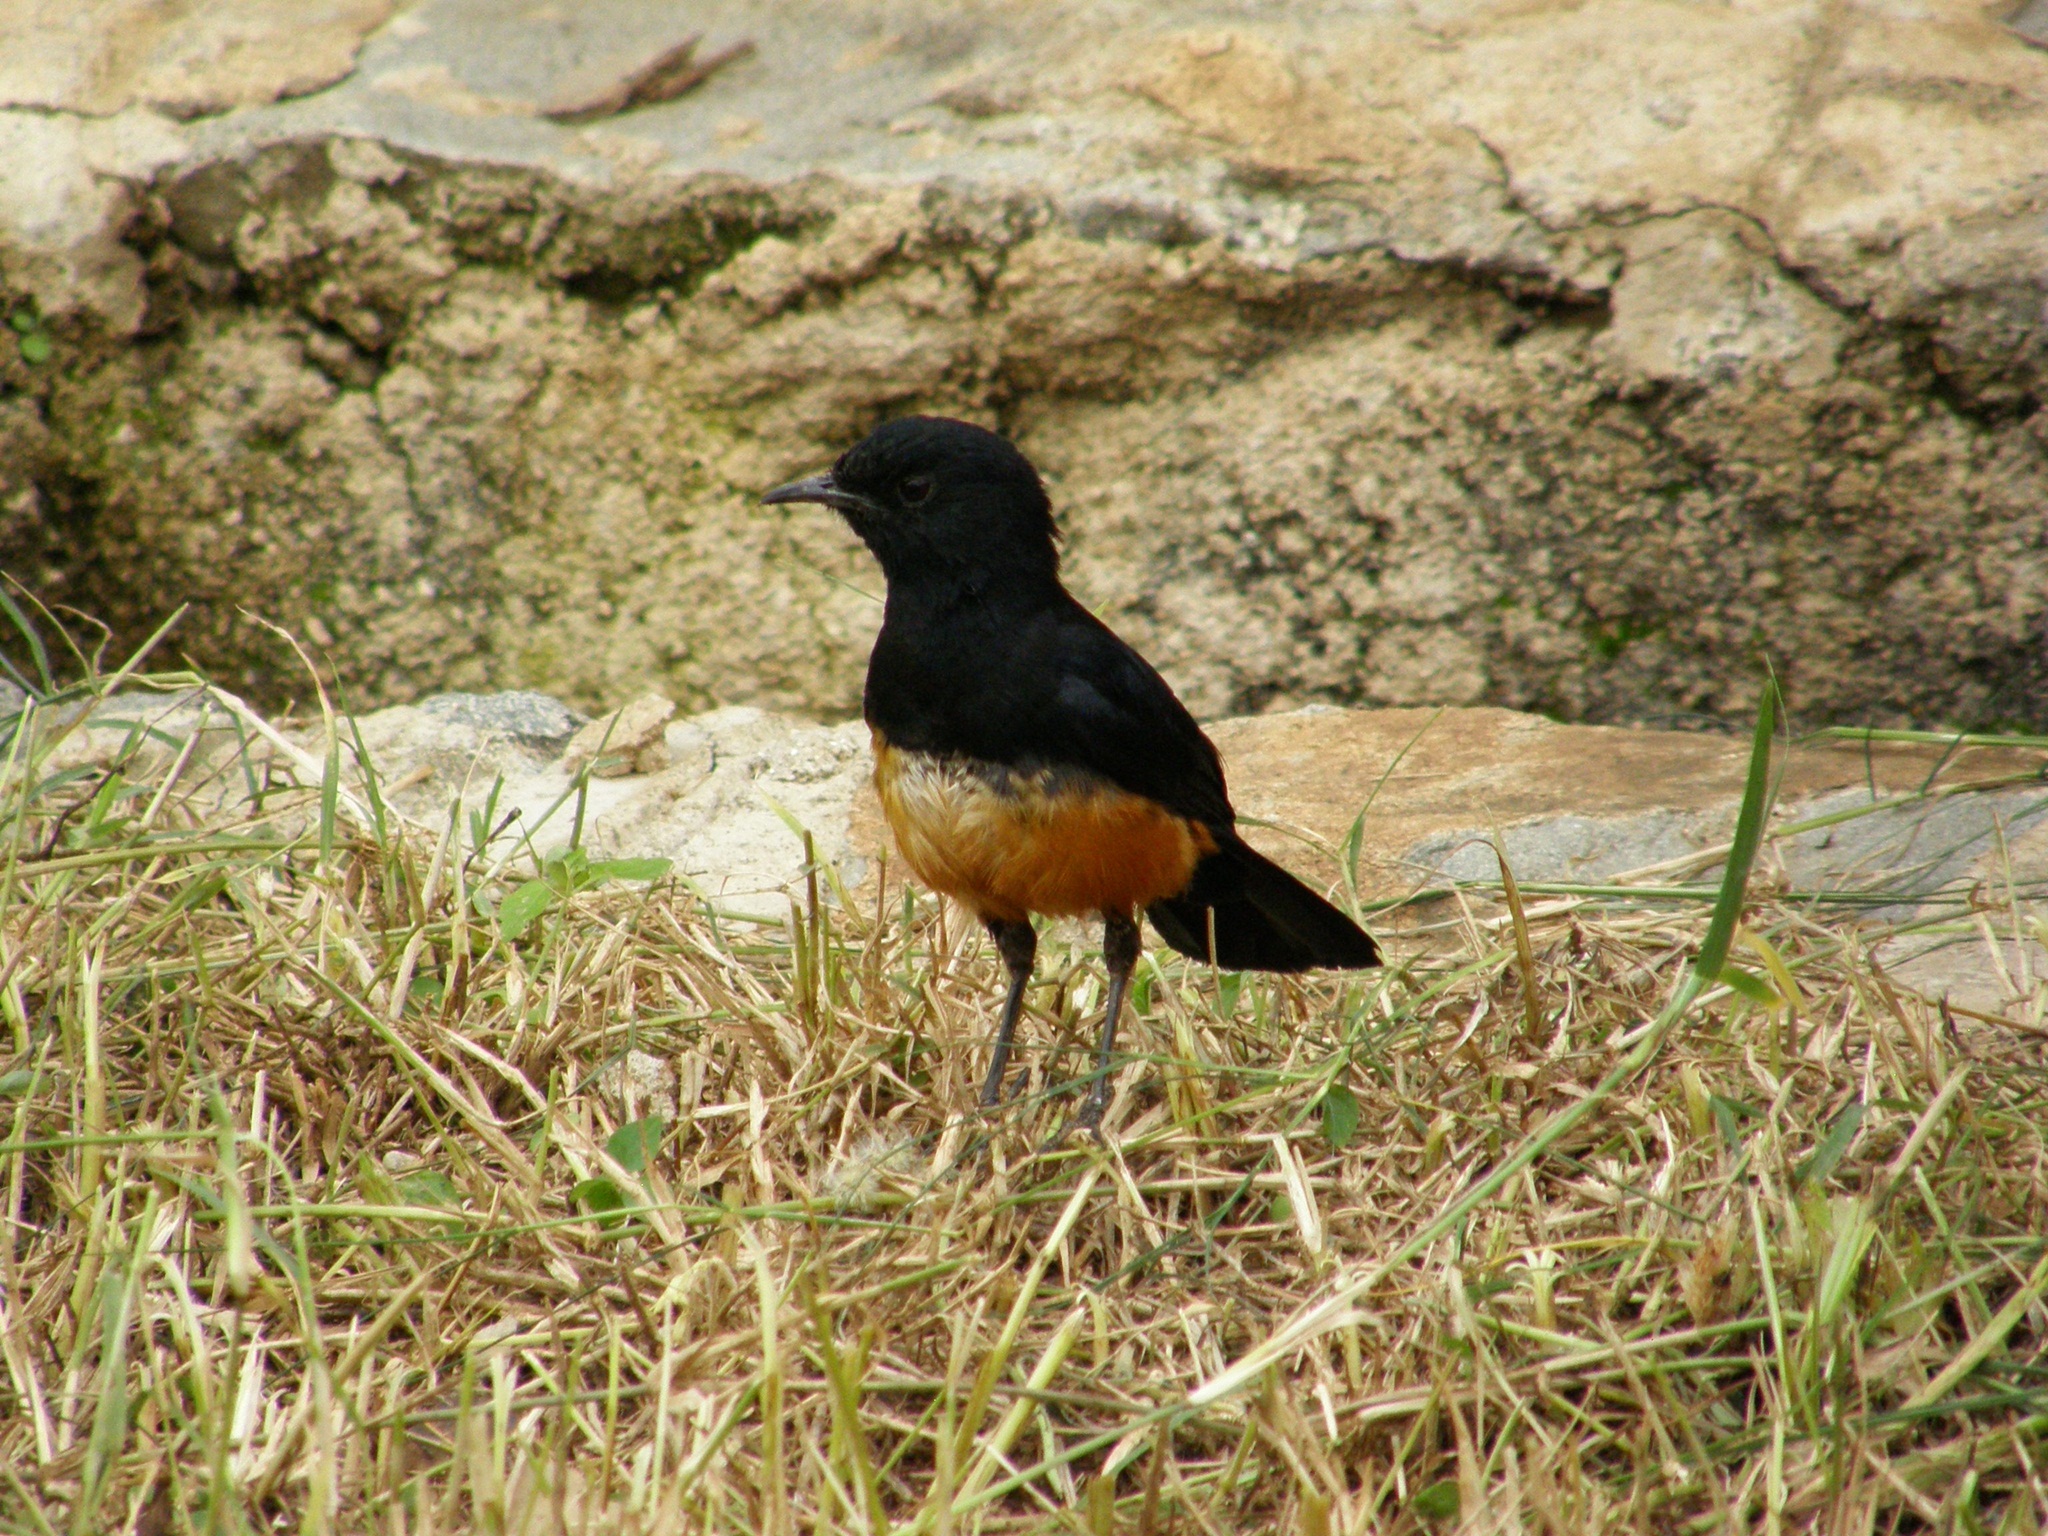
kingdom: Animalia
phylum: Chordata
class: Aves
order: Passeriformes
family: Muscicapidae
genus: Thamnolaea
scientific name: Thamnolaea cinnamomeiventris
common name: Mocking cliff chat
